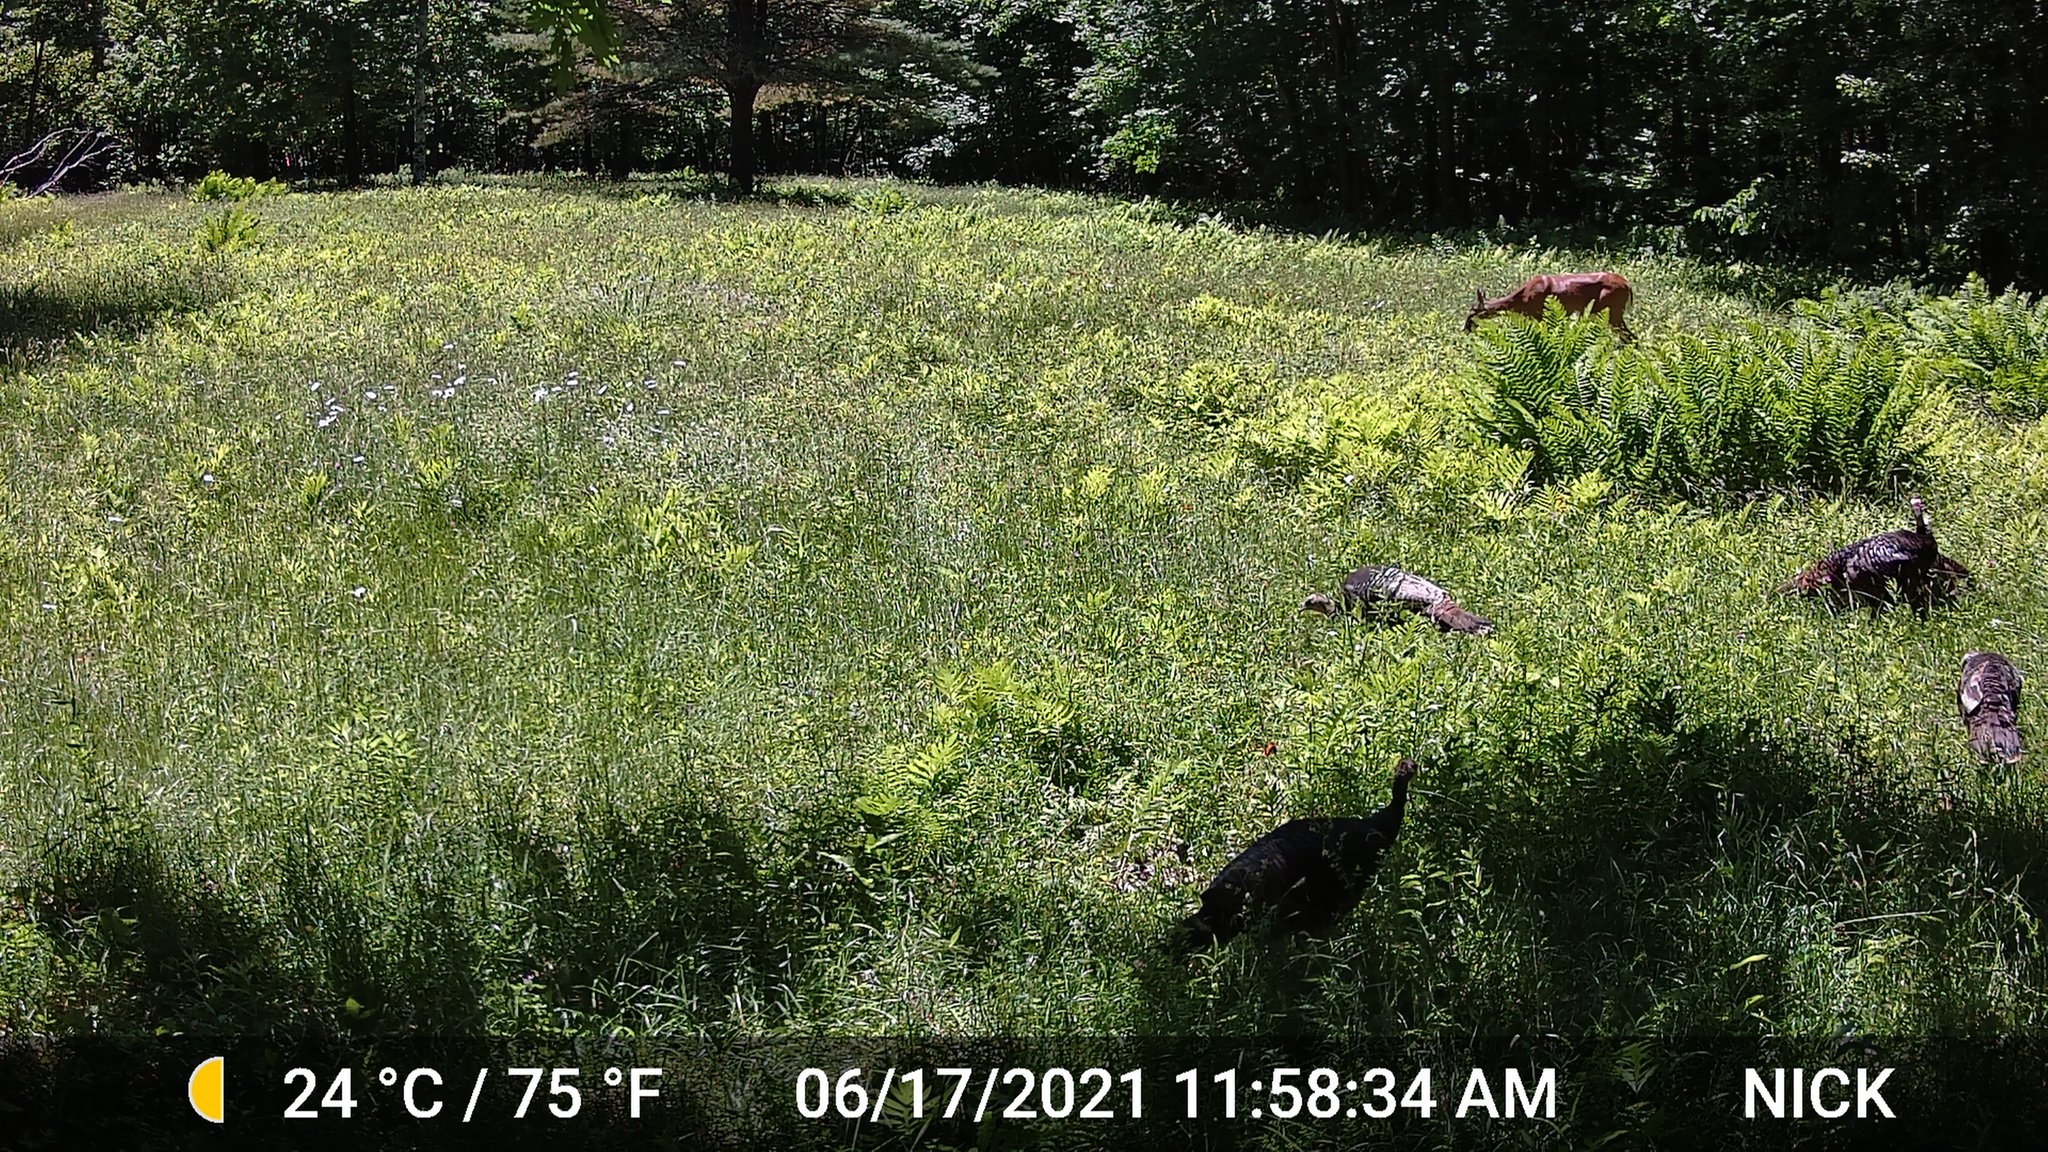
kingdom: Animalia
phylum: Chordata
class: Aves
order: Galliformes
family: Phasianidae
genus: Meleagris
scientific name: Meleagris gallopavo
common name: Wild turkey
